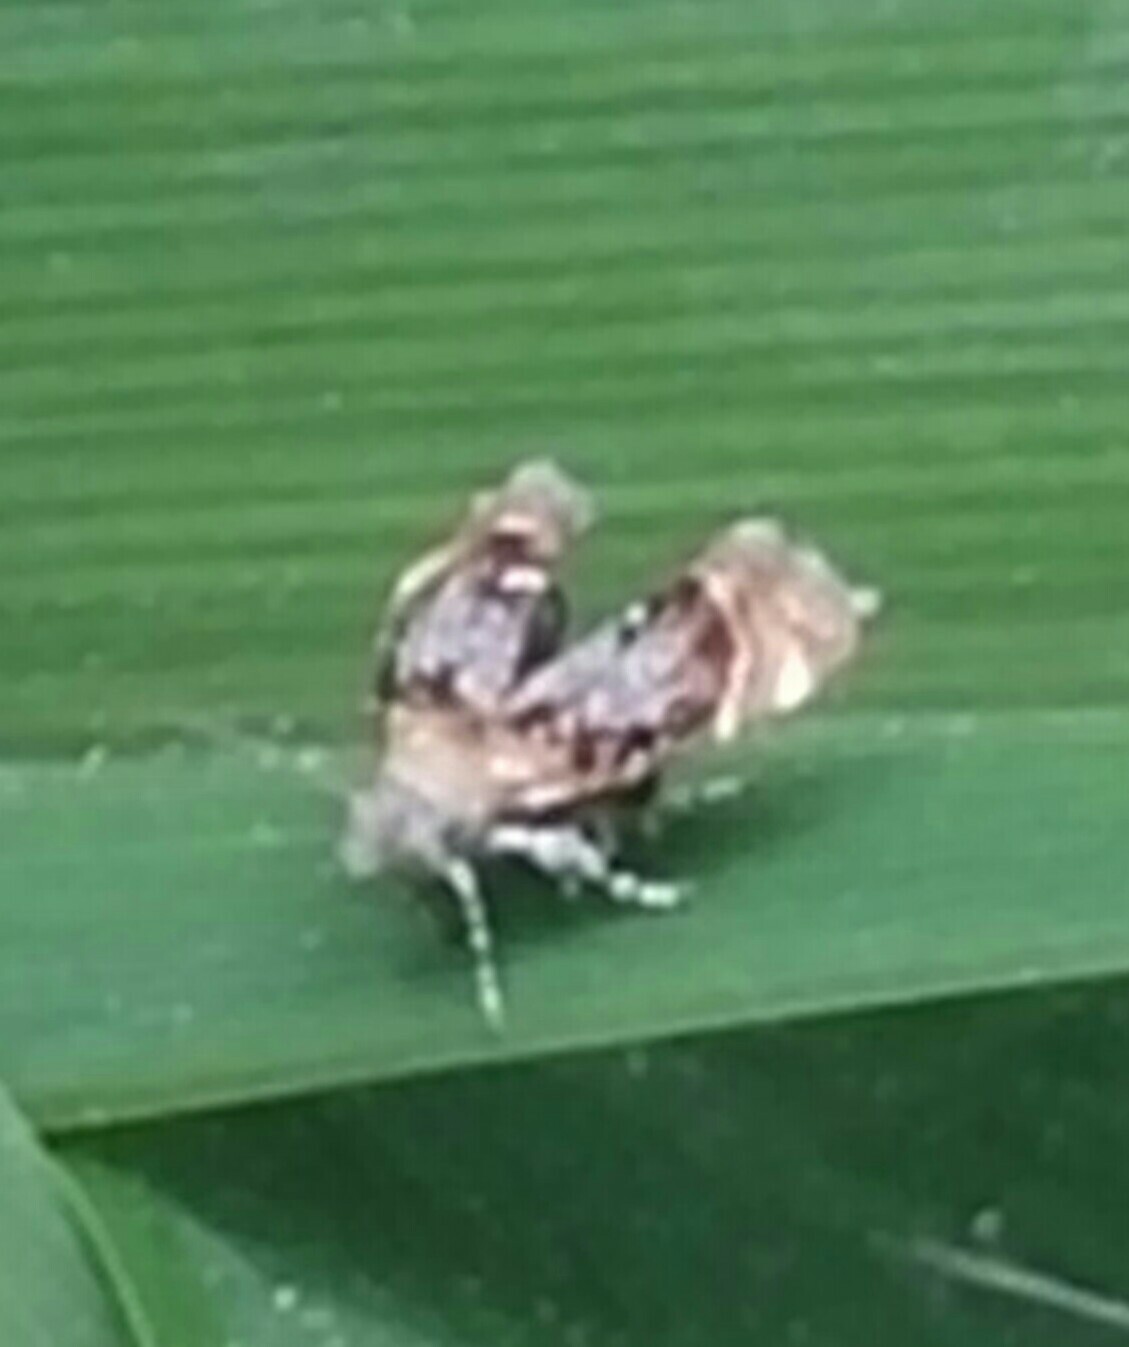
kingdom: Animalia
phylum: Arthropoda
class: Insecta
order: Lepidoptera
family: Choreutidae
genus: Prochoreutis
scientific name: Prochoreutis inflatella
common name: Skullcap skeletonizer moth
